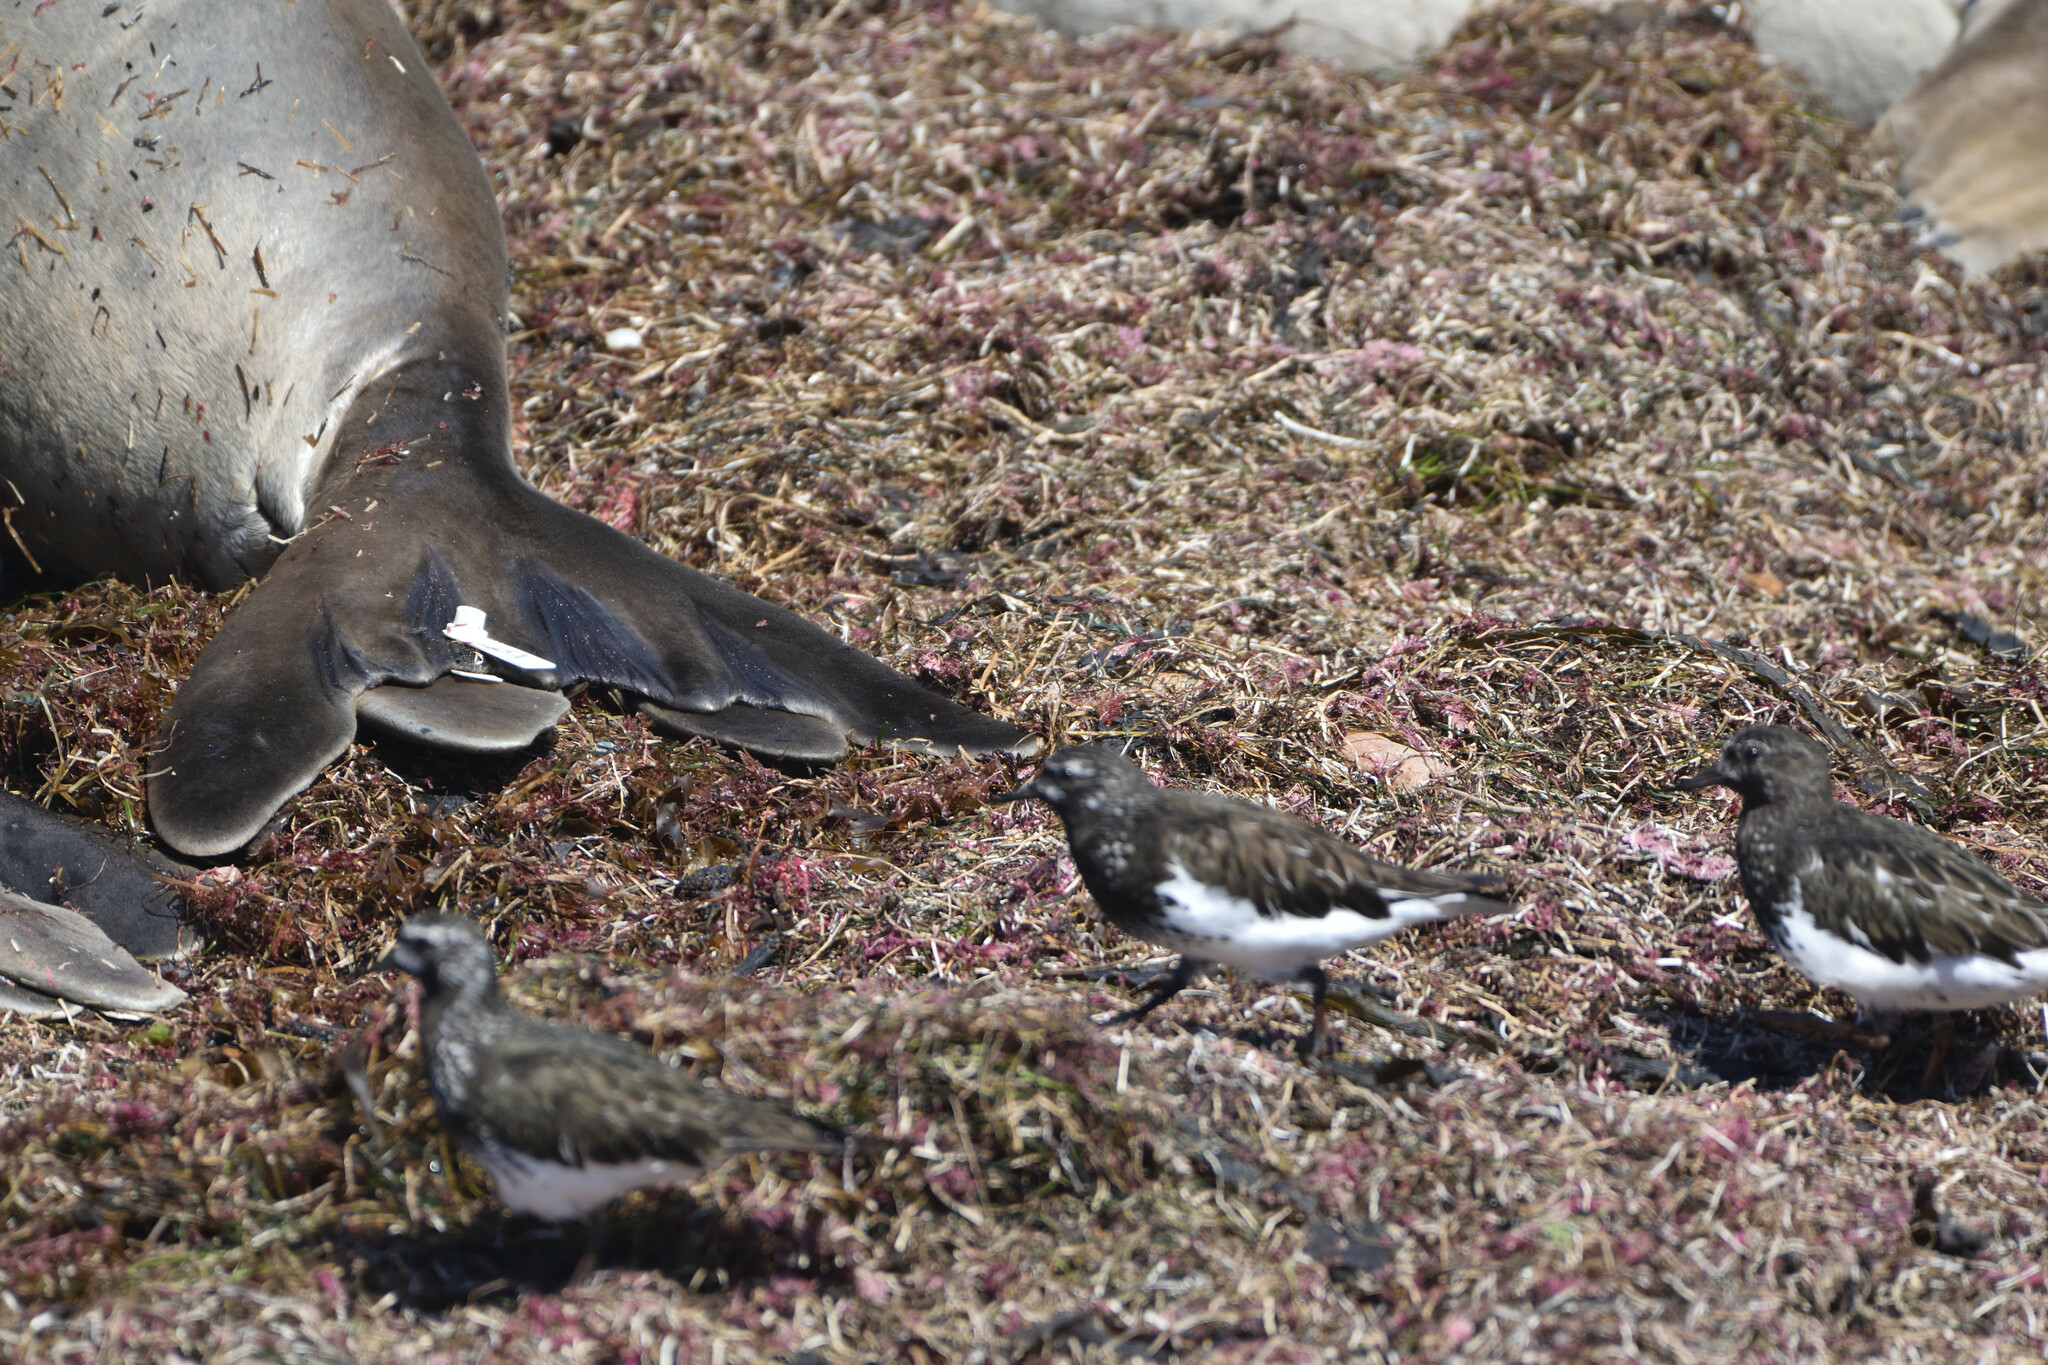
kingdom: Animalia
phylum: Chordata
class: Aves
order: Charadriiformes
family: Scolopacidae
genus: Arenaria
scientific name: Arenaria melanocephala
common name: Black turnstone
